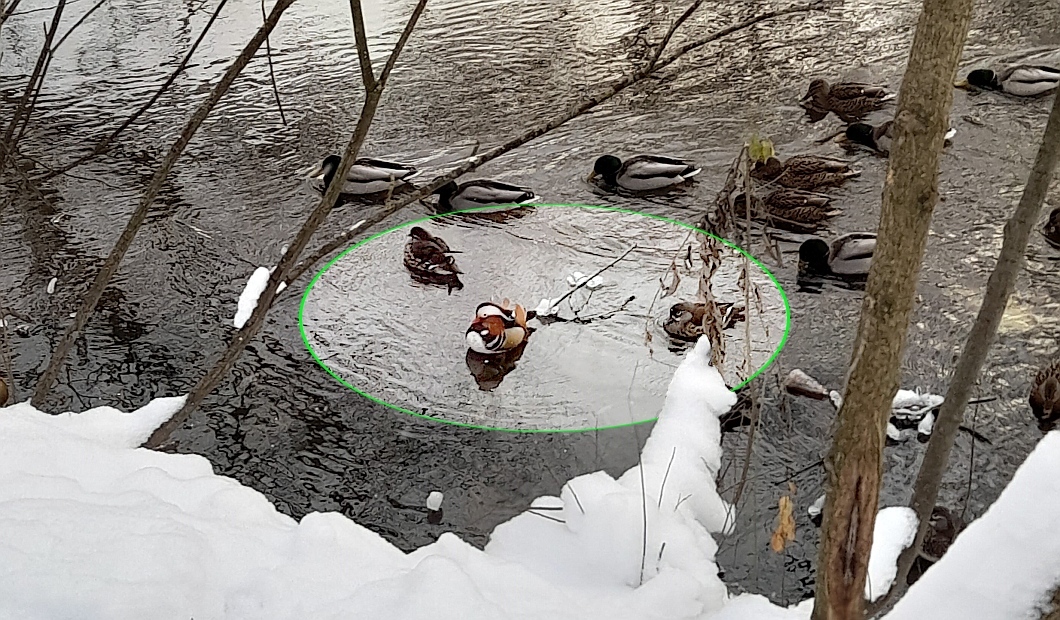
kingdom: Animalia
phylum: Chordata
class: Aves
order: Anseriformes
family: Anatidae
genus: Aix
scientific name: Aix galericulata
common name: Mandarin duck
